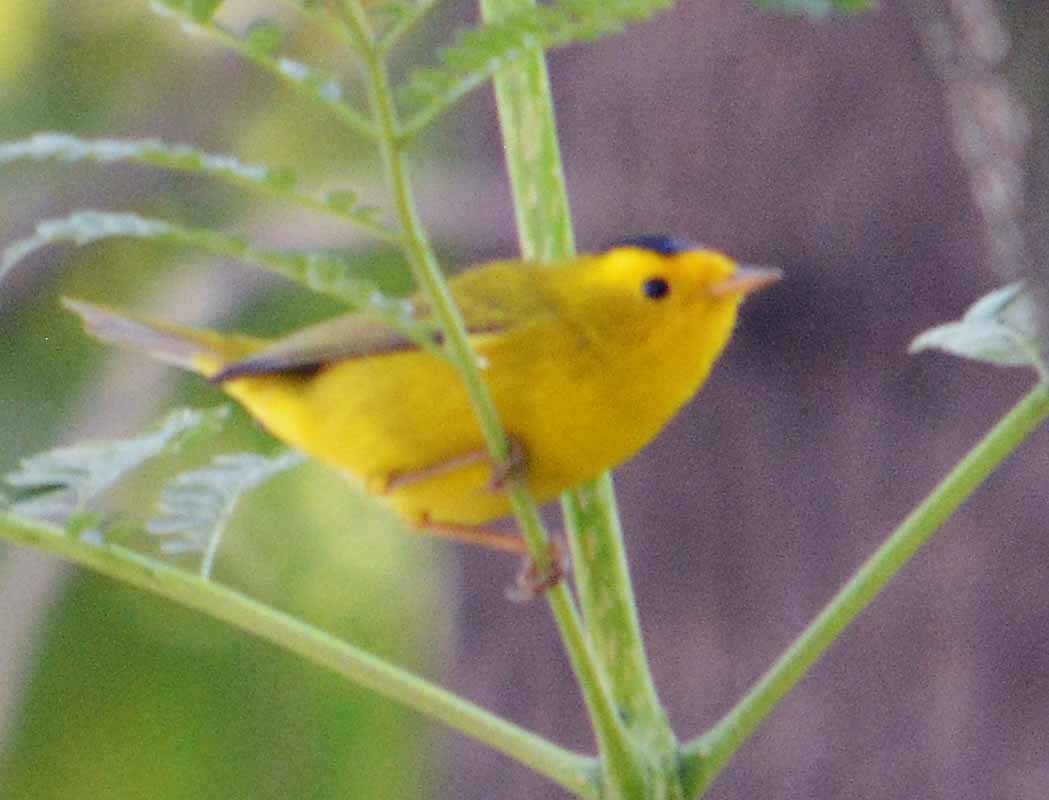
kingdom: Animalia
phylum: Chordata
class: Aves
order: Passeriformes
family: Parulidae
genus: Cardellina
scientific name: Cardellina pusilla
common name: Wilson's warbler
